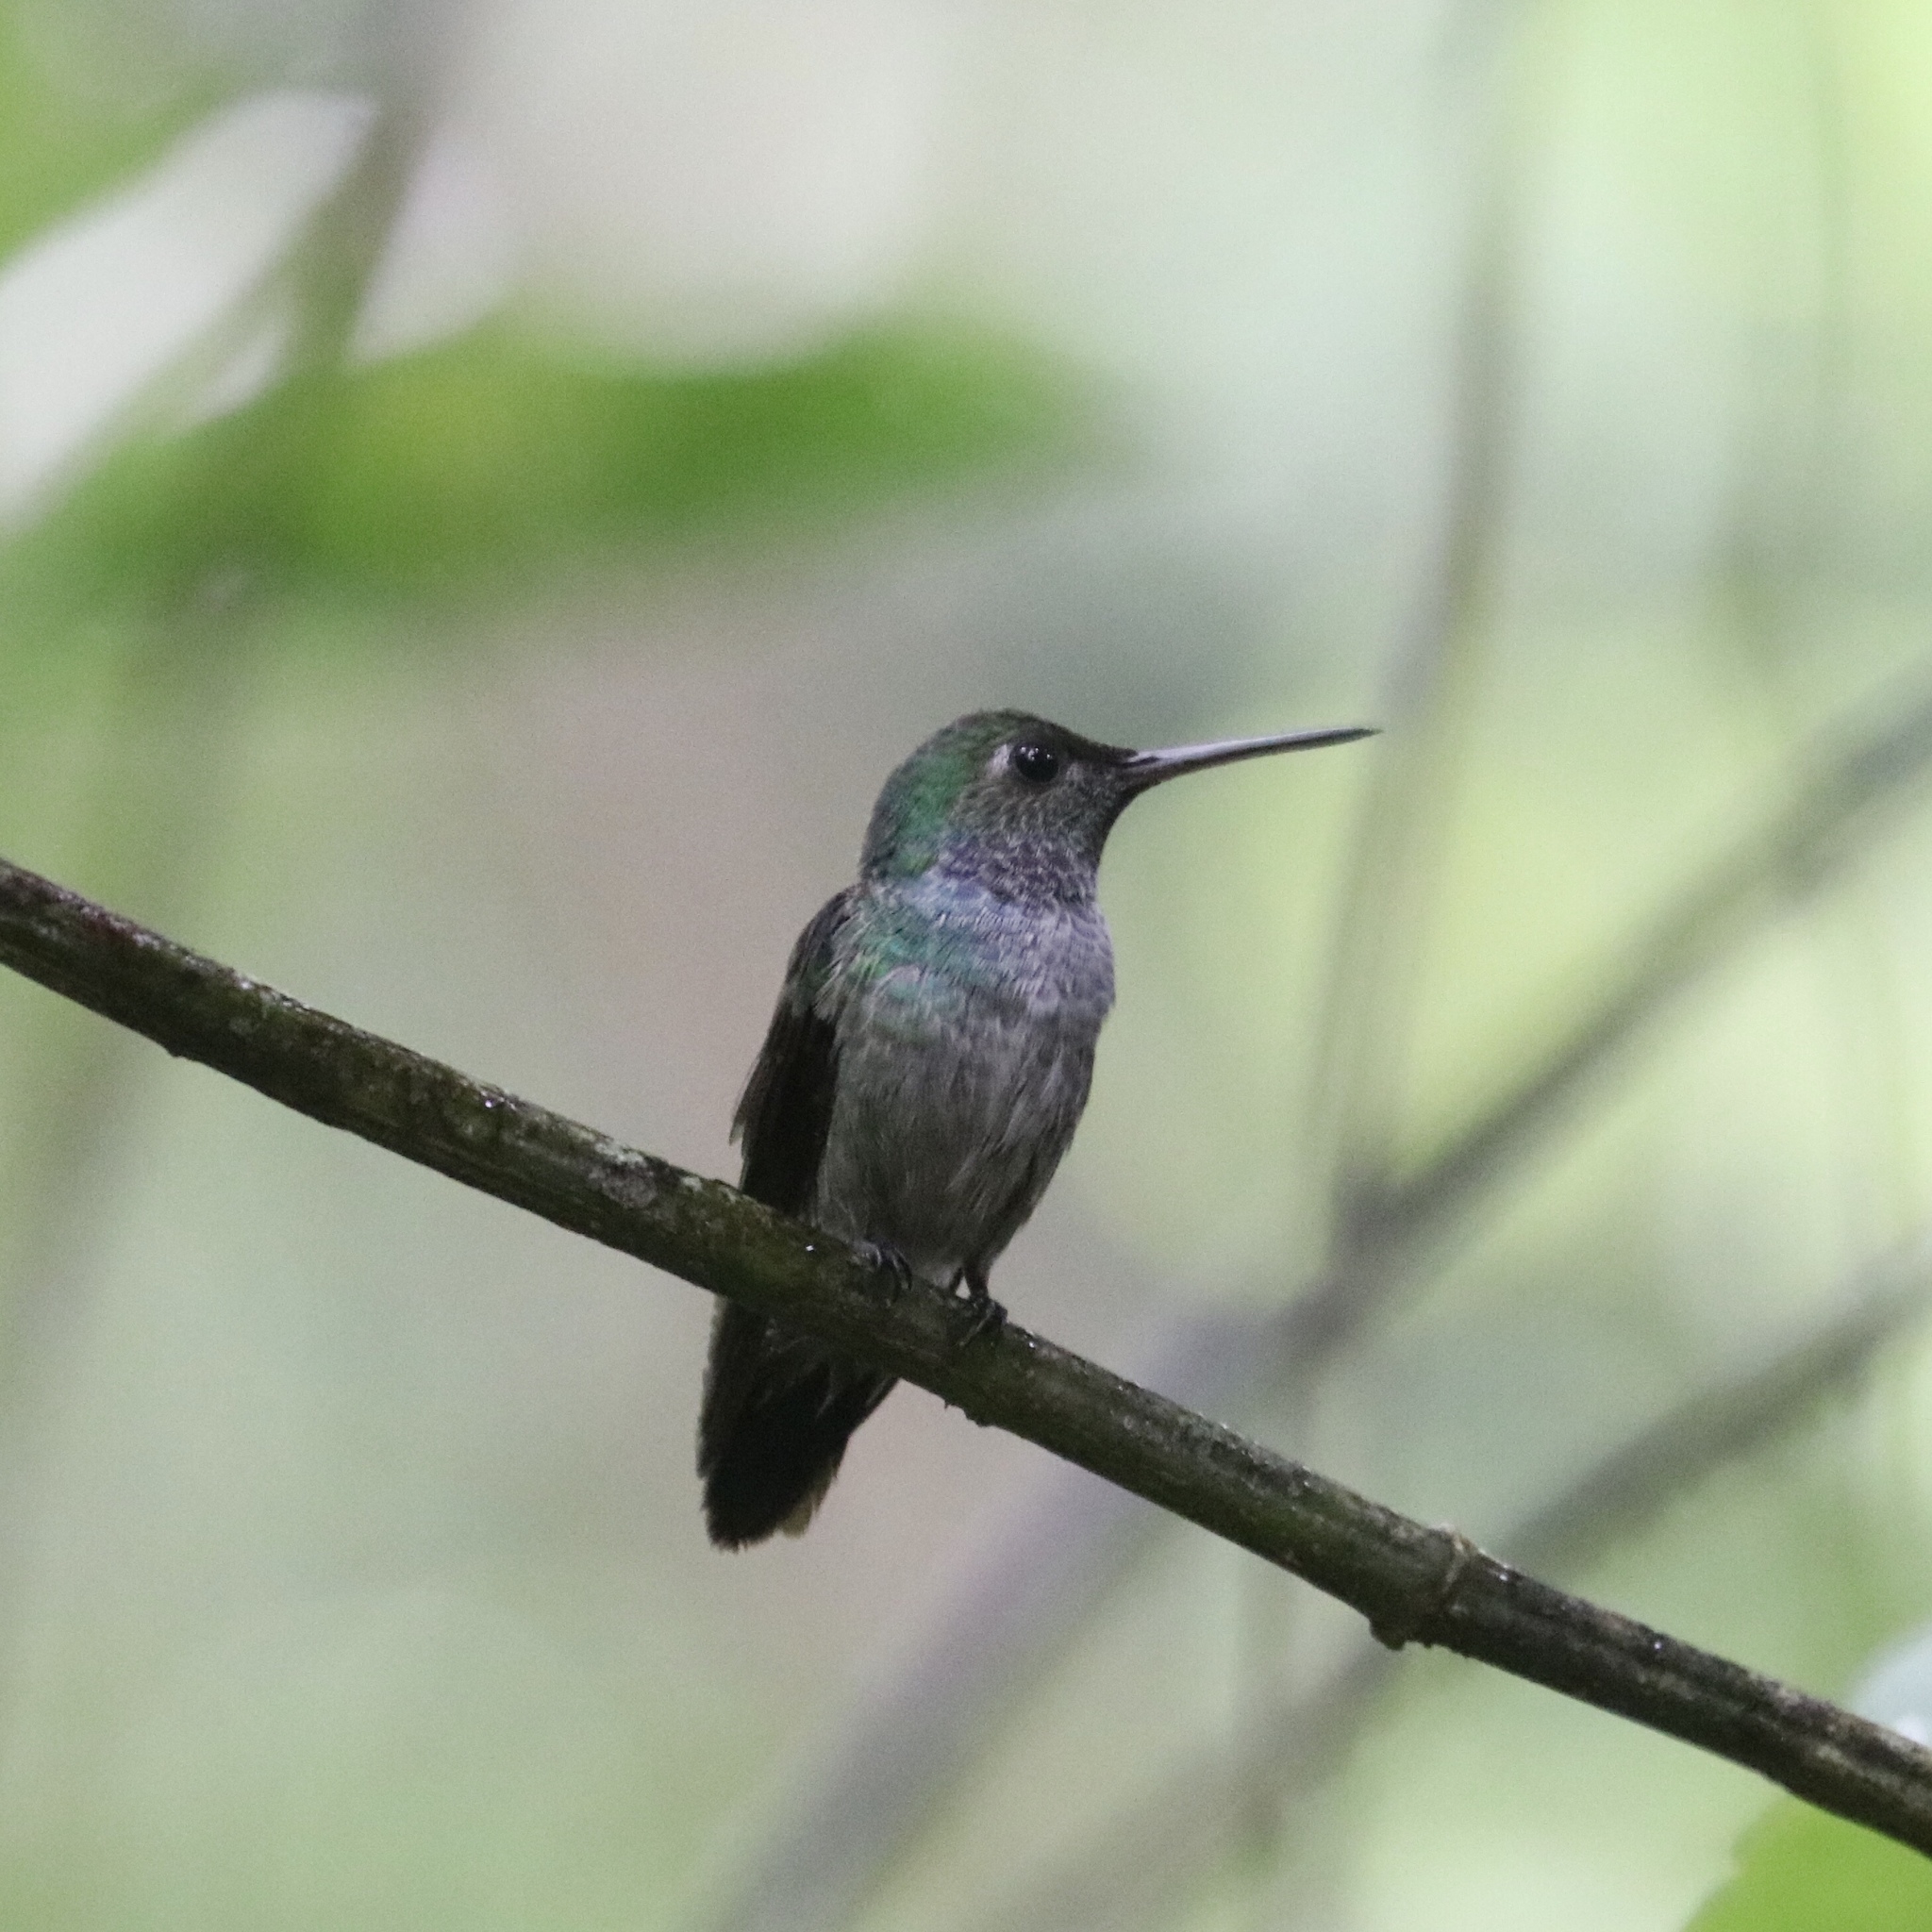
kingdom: Animalia
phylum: Chordata
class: Aves
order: Apodiformes
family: Trochilidae
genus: Polyerata
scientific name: Polyerata amabilis
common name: Blue-chested hummingbird
